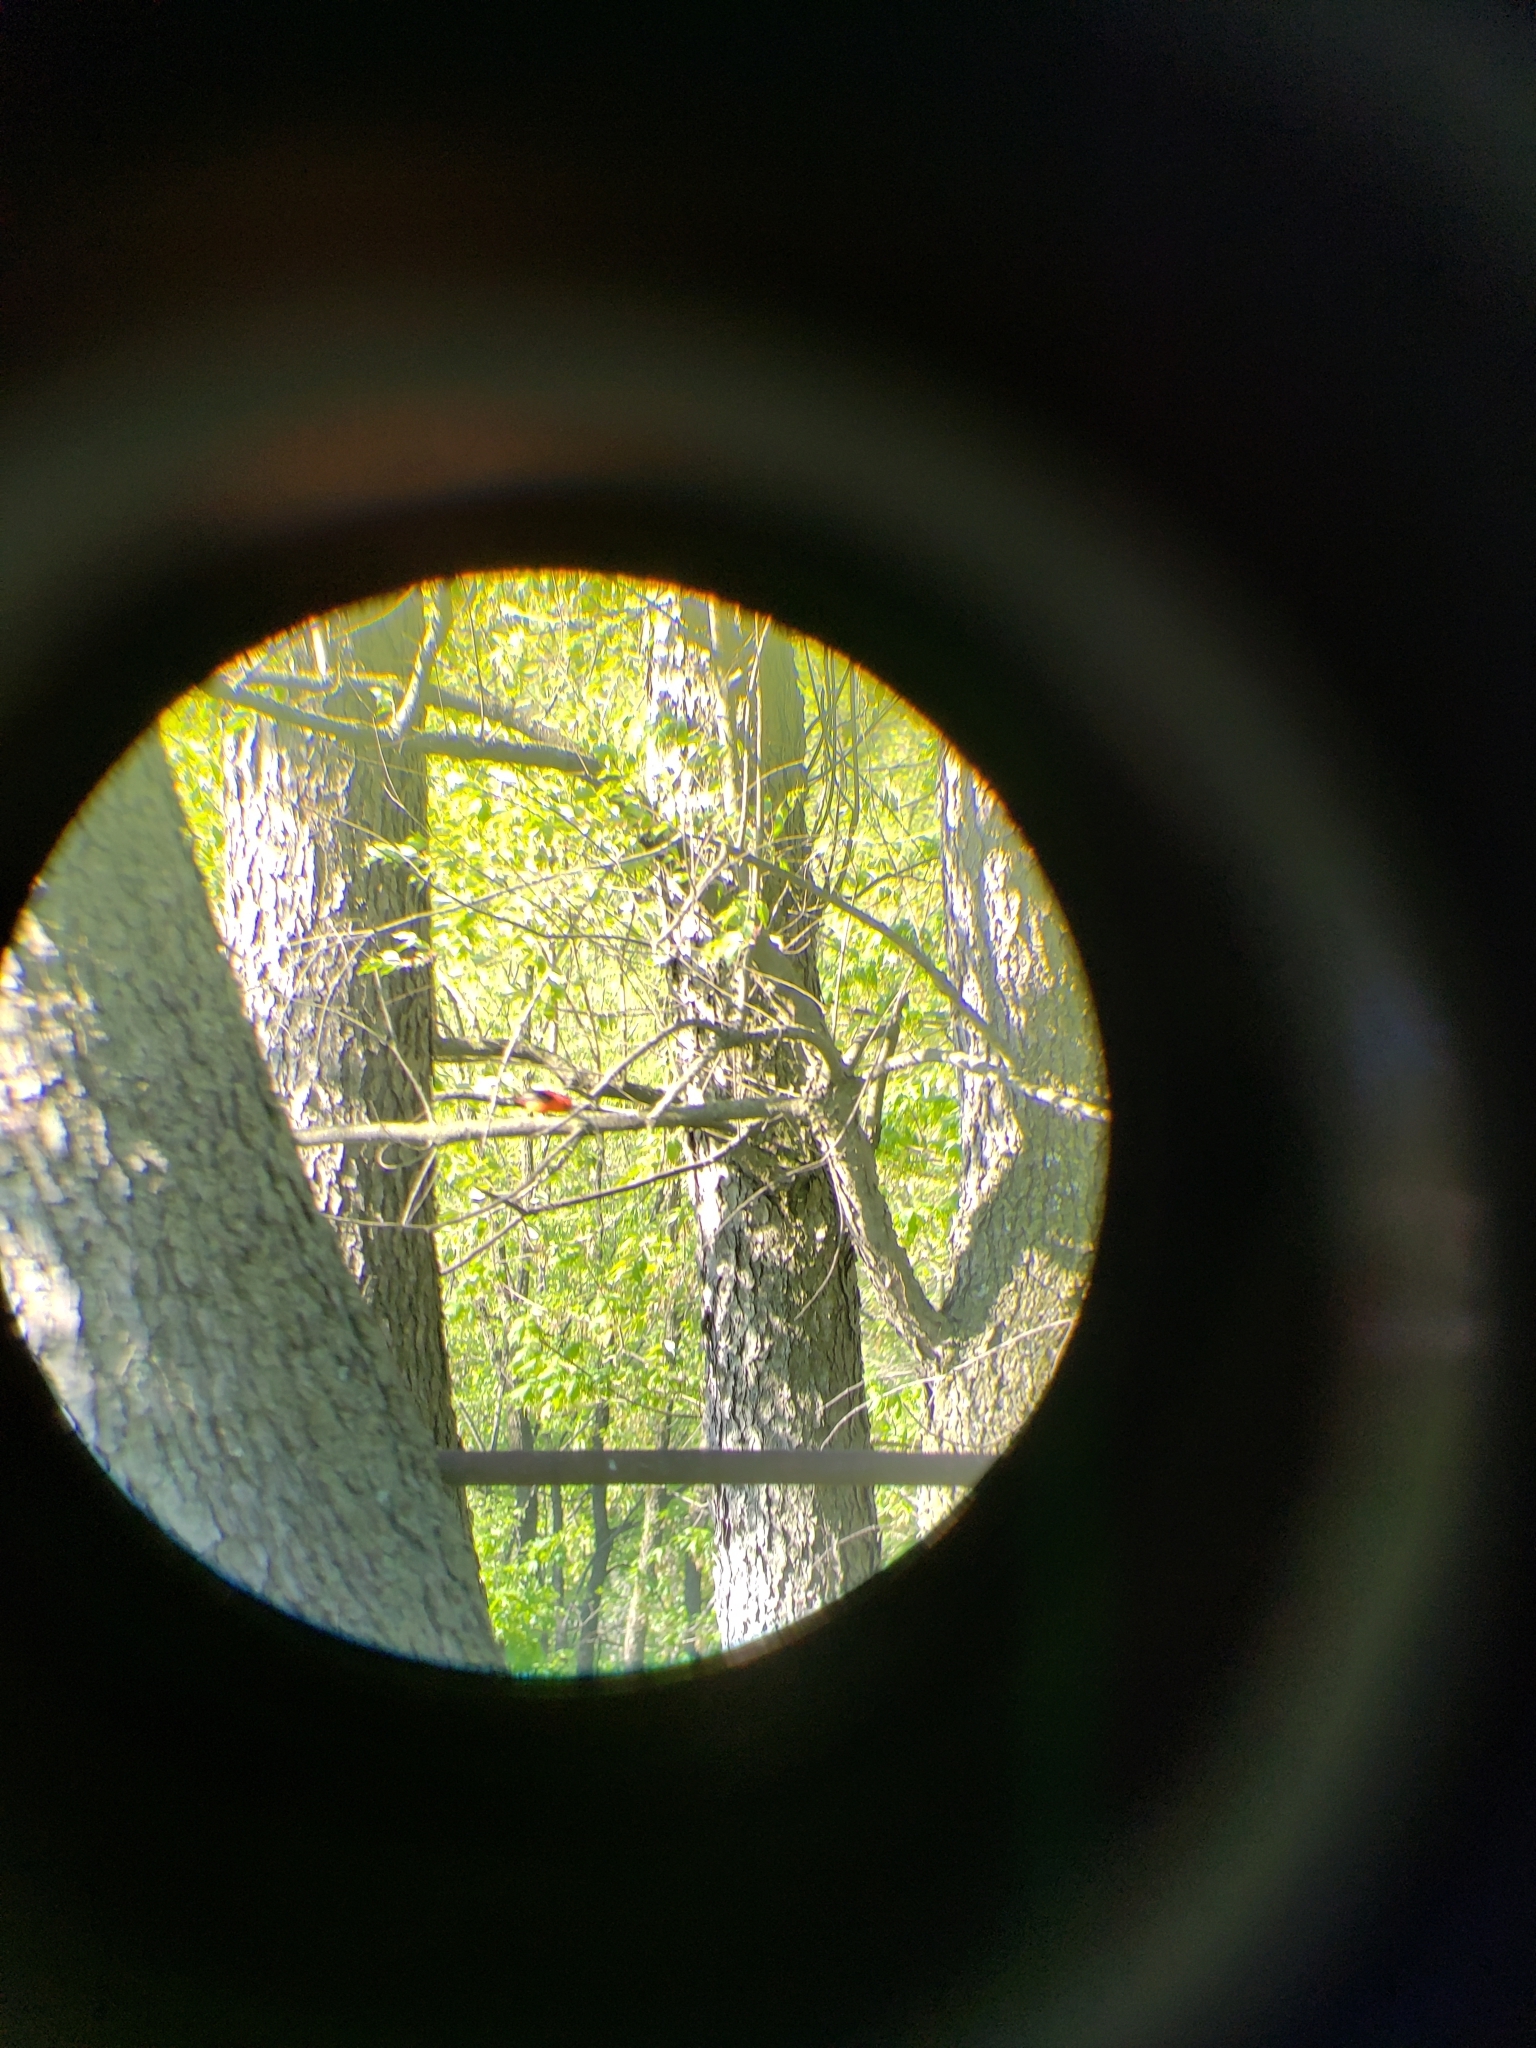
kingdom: Animalia
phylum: Chordata
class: Aves
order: Passeriformes
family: Cardinalidae
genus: Piranga
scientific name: Piranga olivacea
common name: Scarlet tanager
